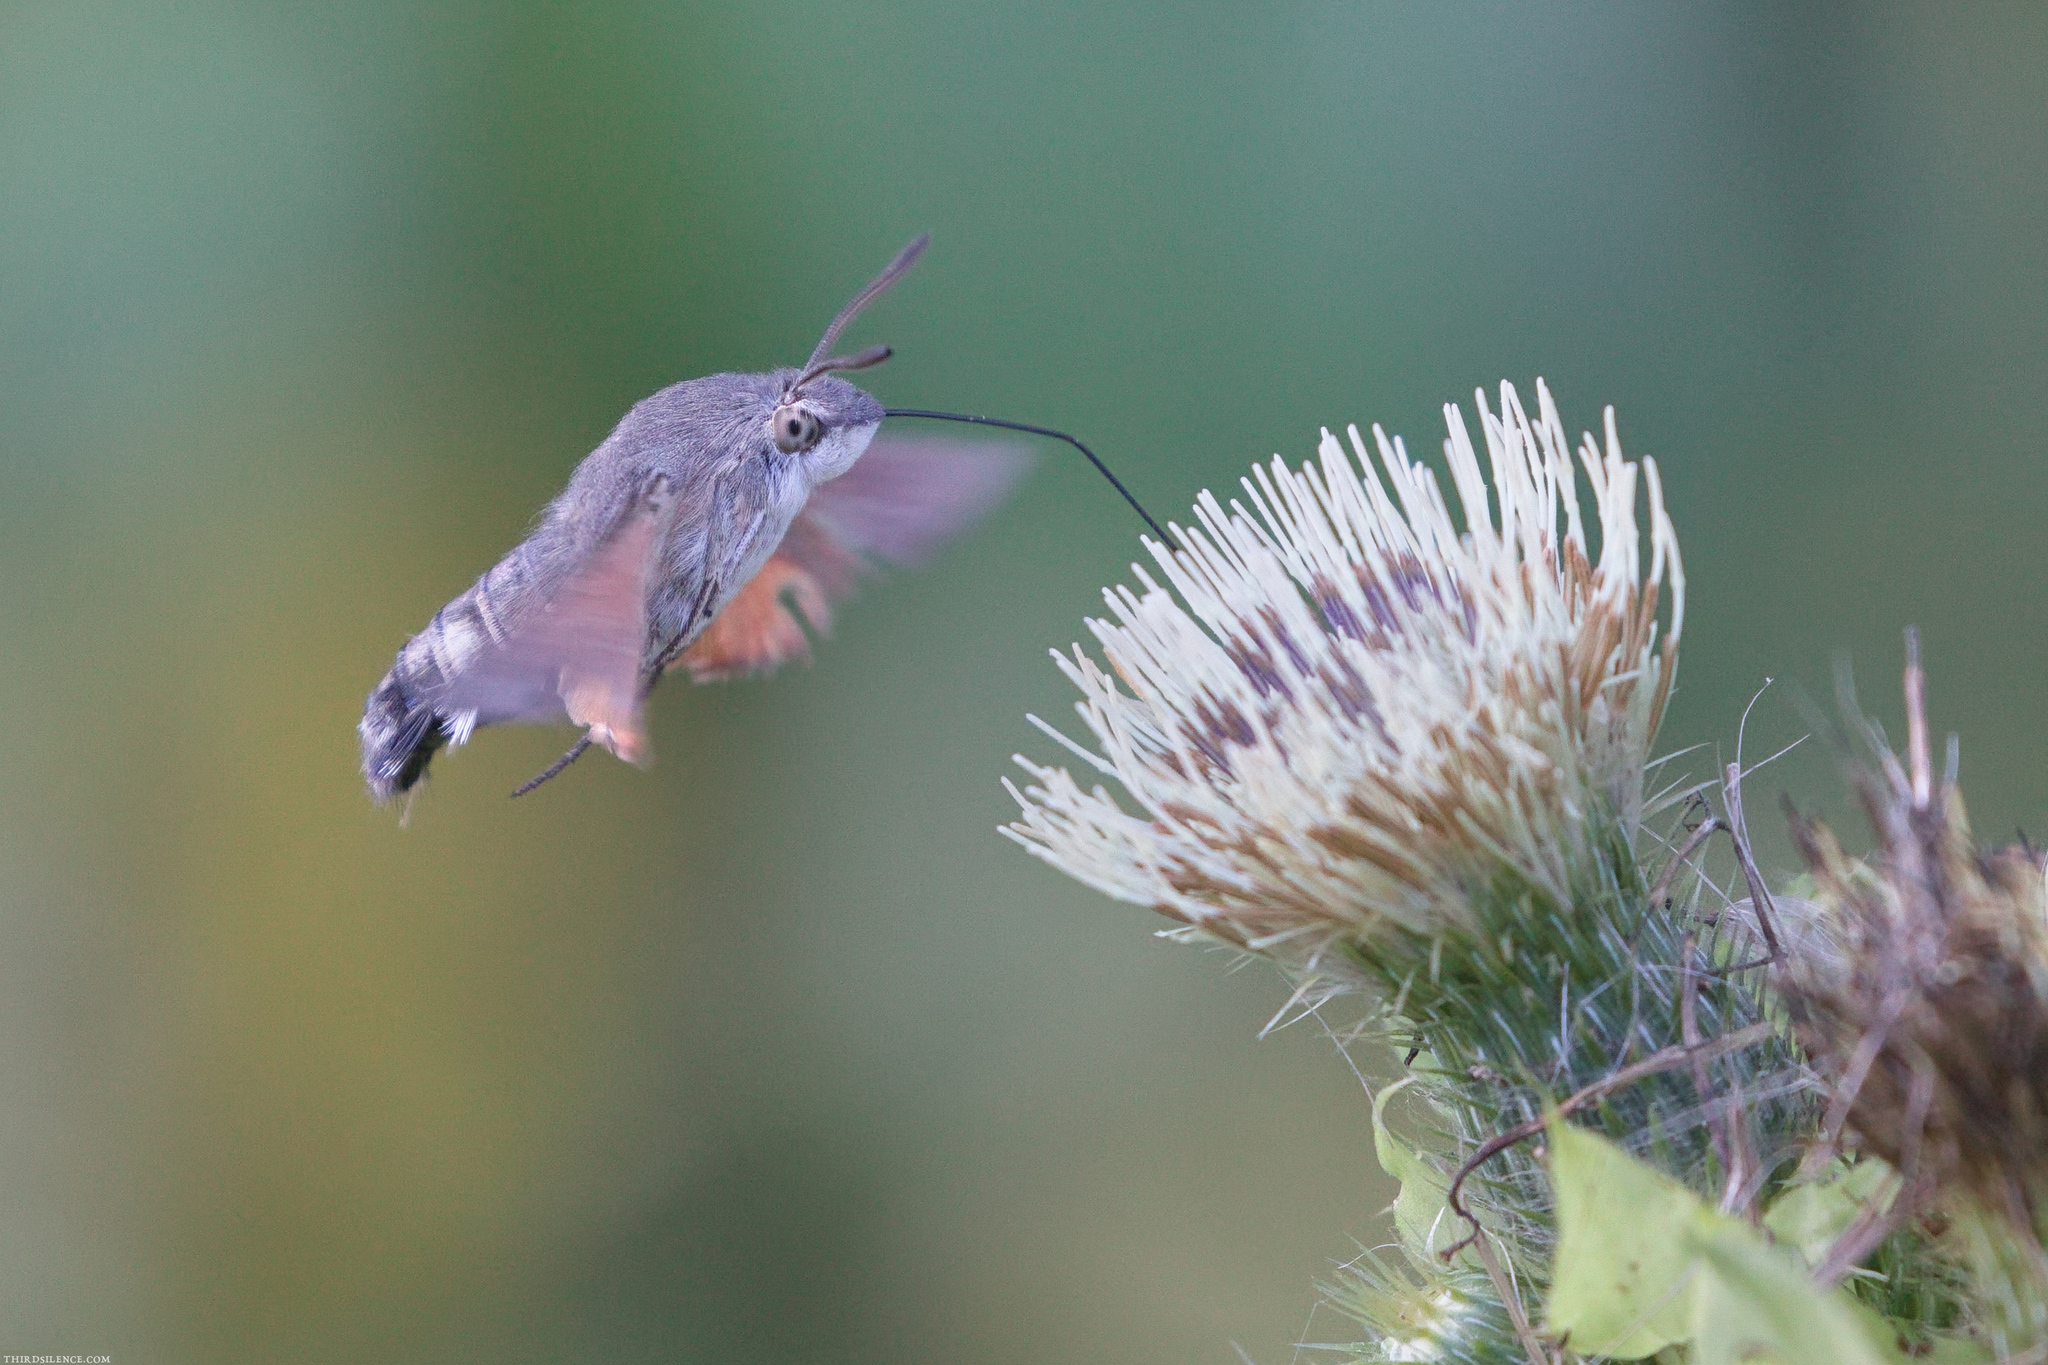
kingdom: Animalia
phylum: Arthropoda
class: Insecta
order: Lepidoptera
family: Sphingidae
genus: Macroglossum
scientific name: Macroglossum stellatarum
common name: Humming-bird hawk-moth
